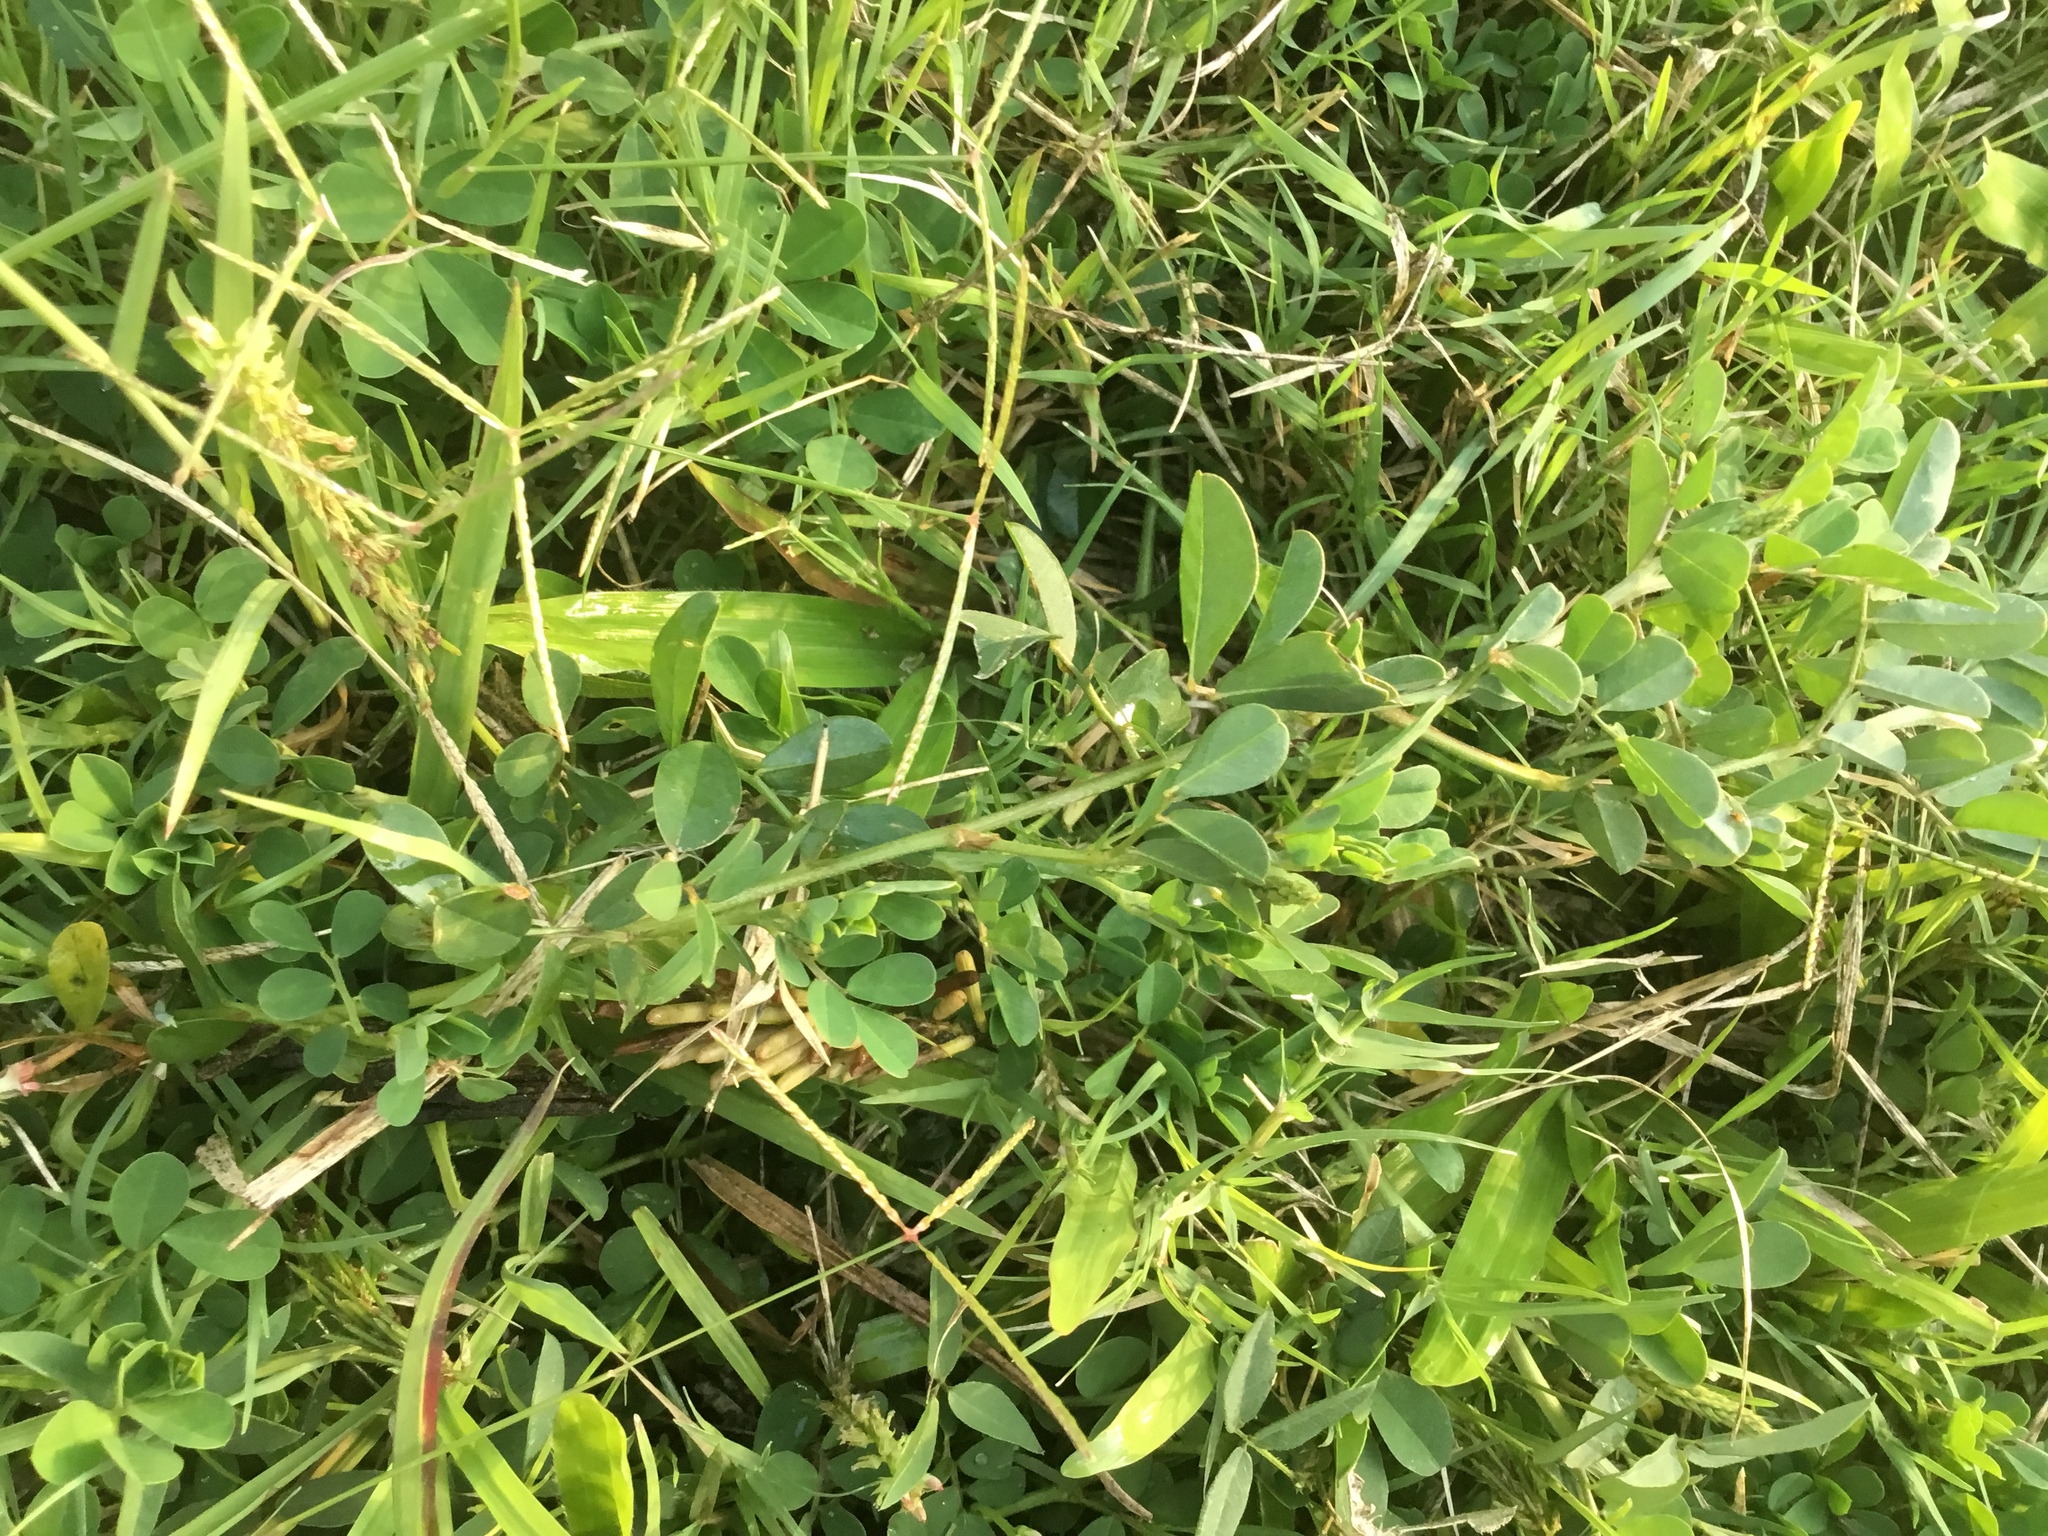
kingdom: Plantae
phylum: Tracheophyta
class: Magnoliopsida
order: Fabales
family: Fabaceae
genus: Indigofera
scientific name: Indigofera spicata
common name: Creeping indigo
